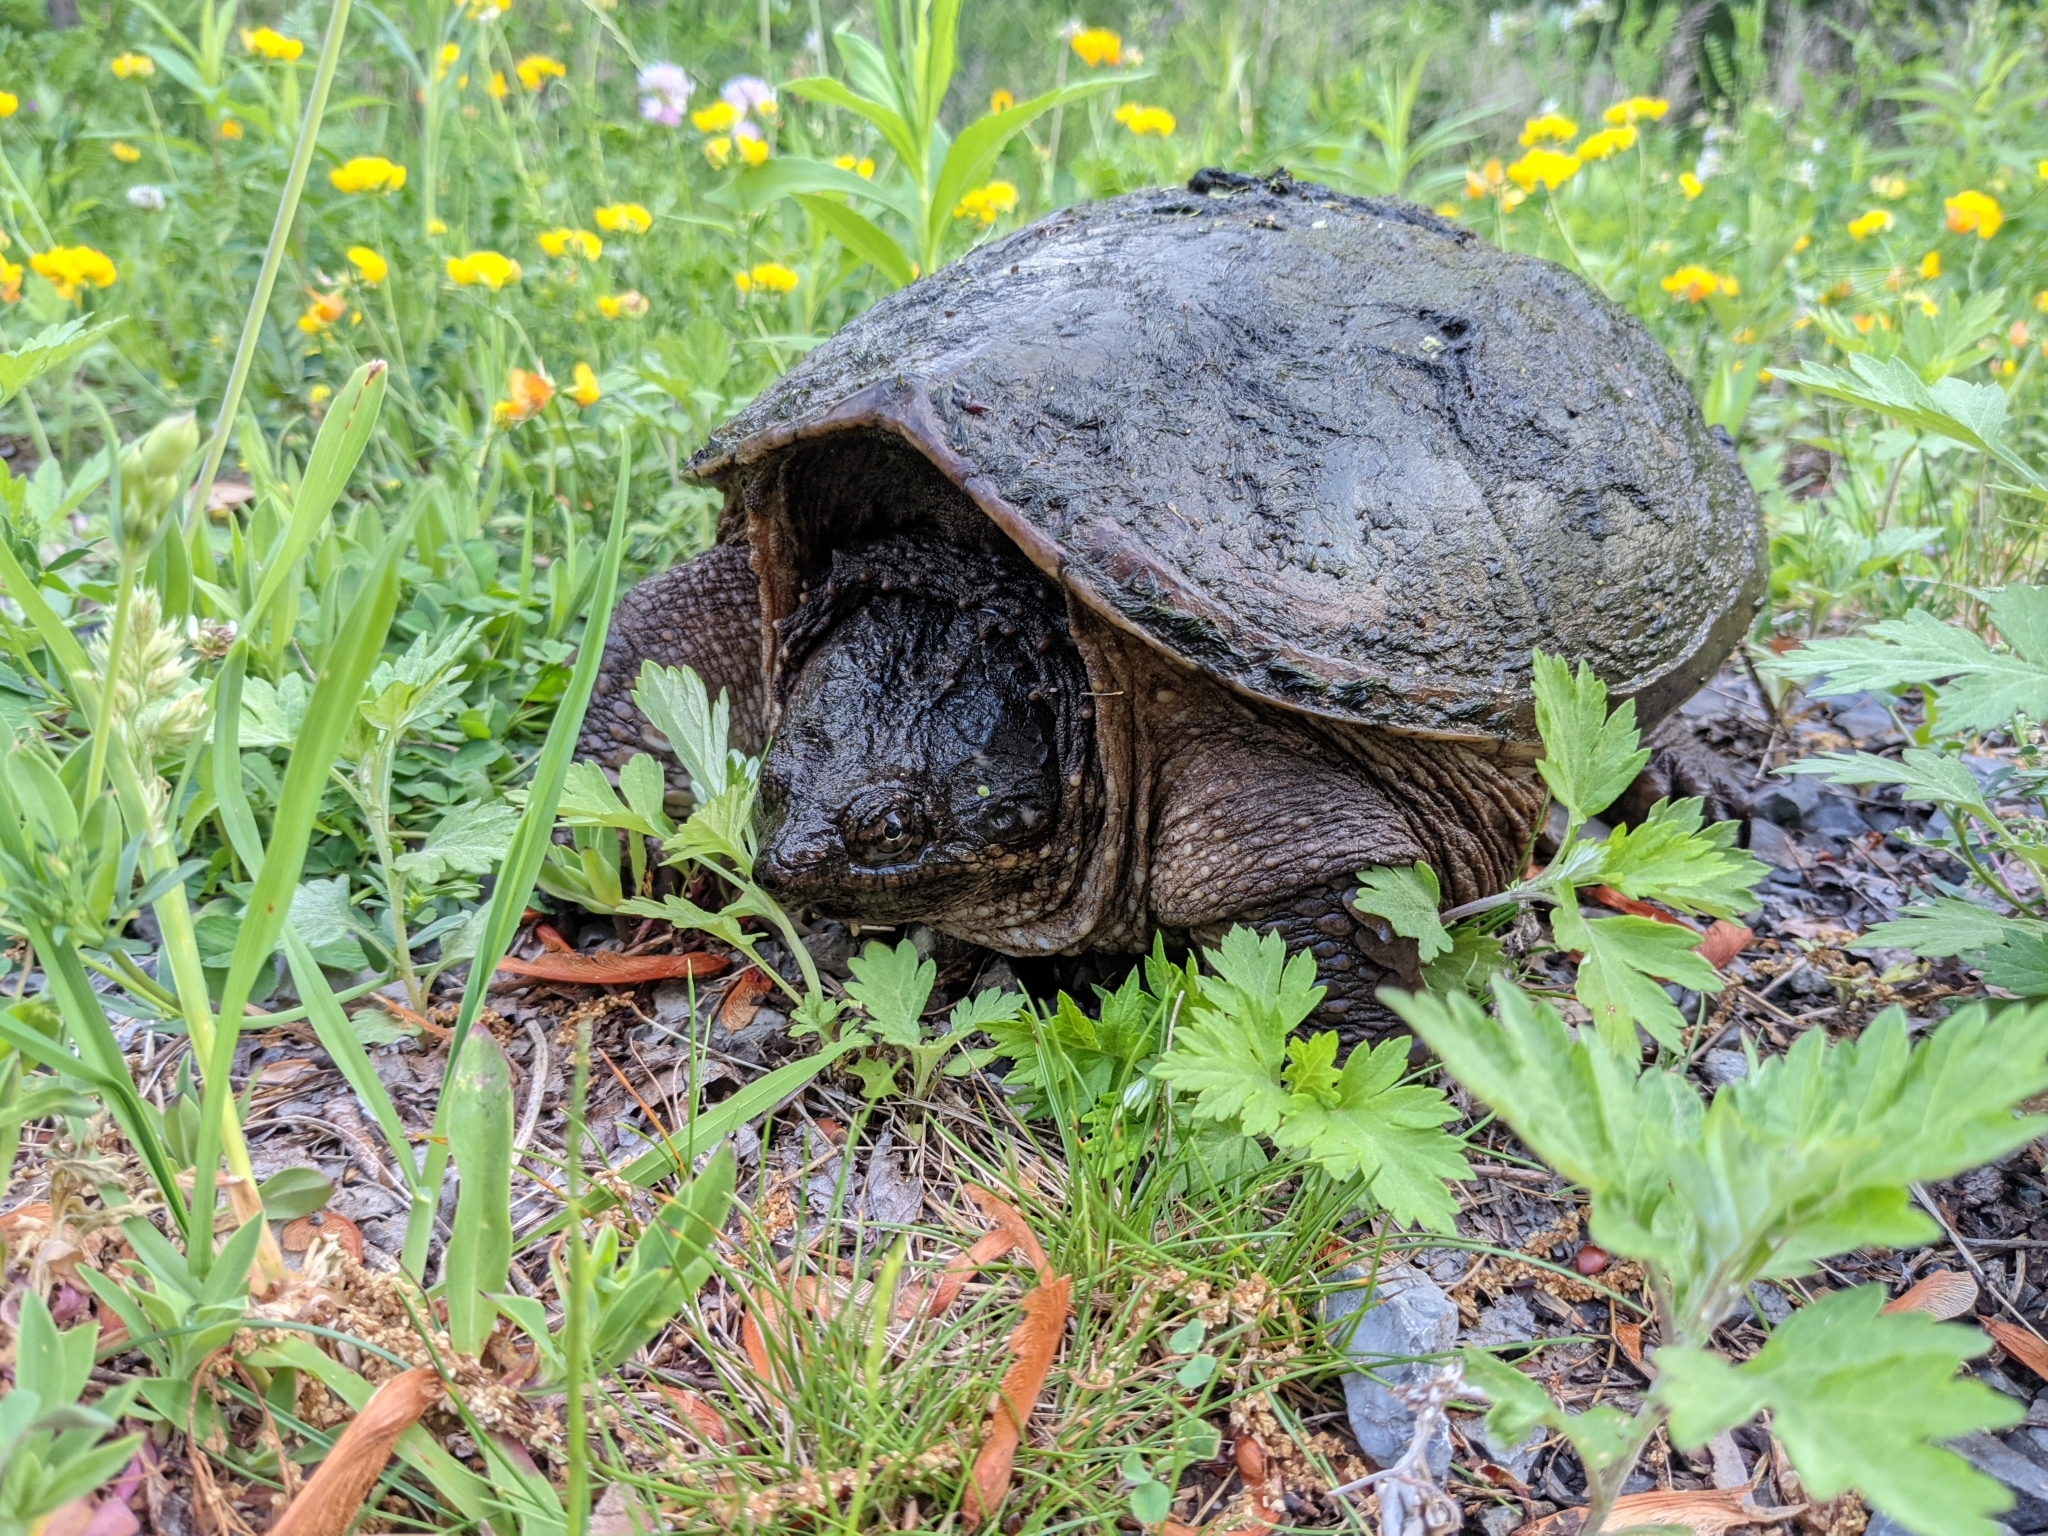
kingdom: Animalia
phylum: Chordata
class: Testudines
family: Chelydridae
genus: Chelydra
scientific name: Chelydra serpentina
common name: Common snapping turtle
